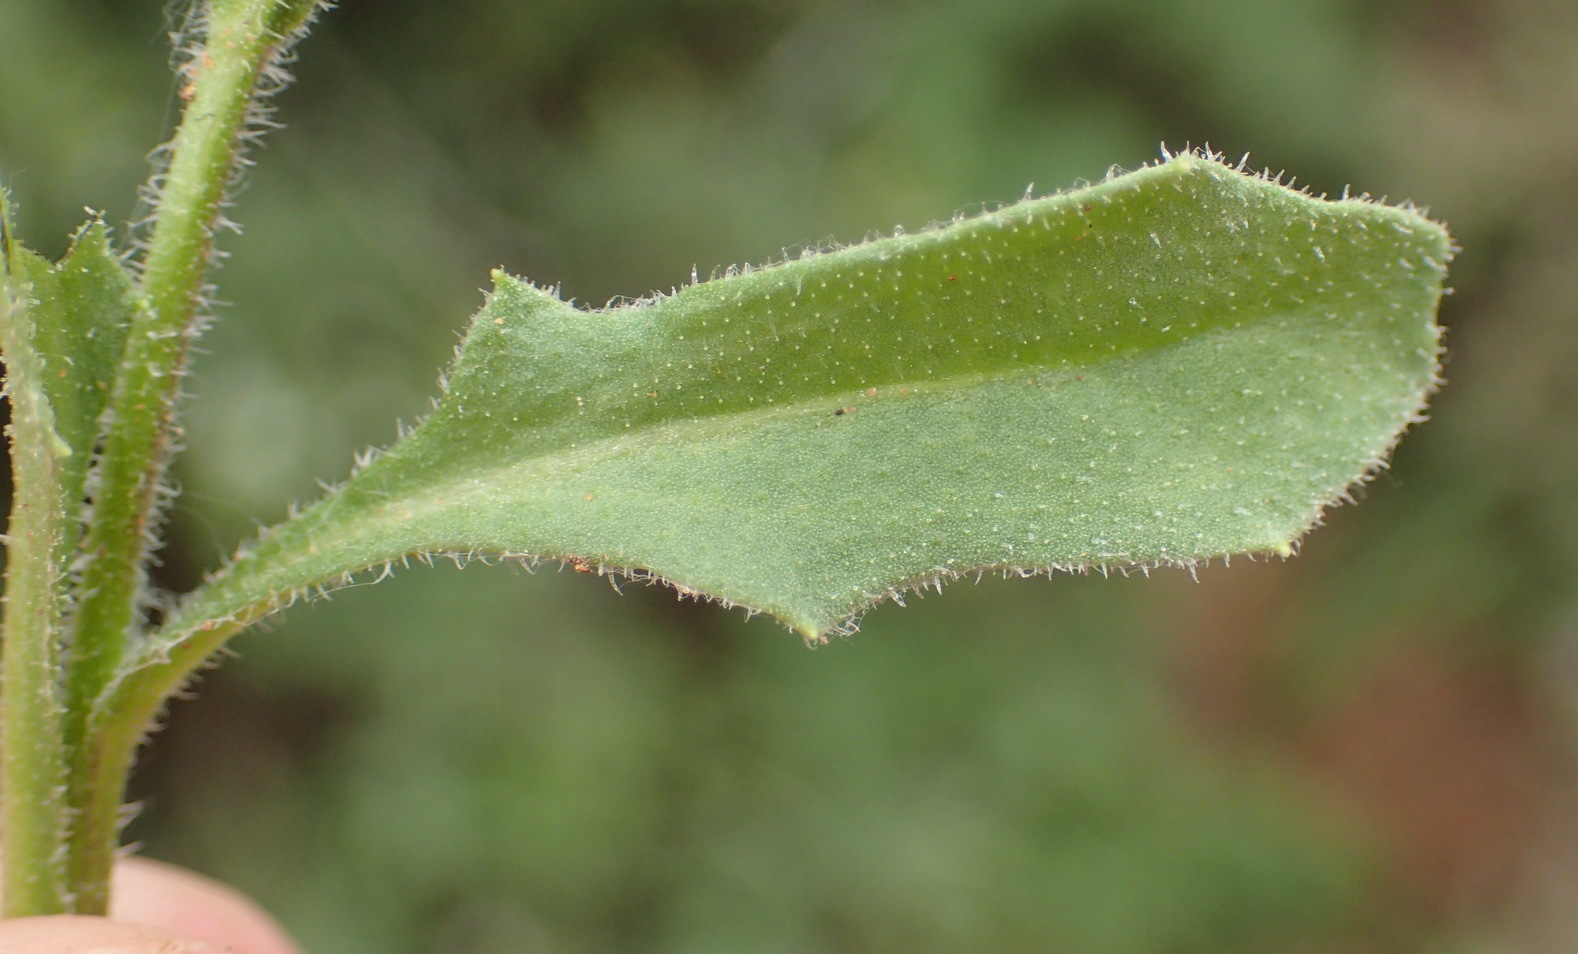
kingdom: Plantae
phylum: Tracheophyta
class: Magnoliopsida
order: Asterales
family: Asteraceae
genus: Osteospermum
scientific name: Osteospermum calendulaceum
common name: Stinking roger
